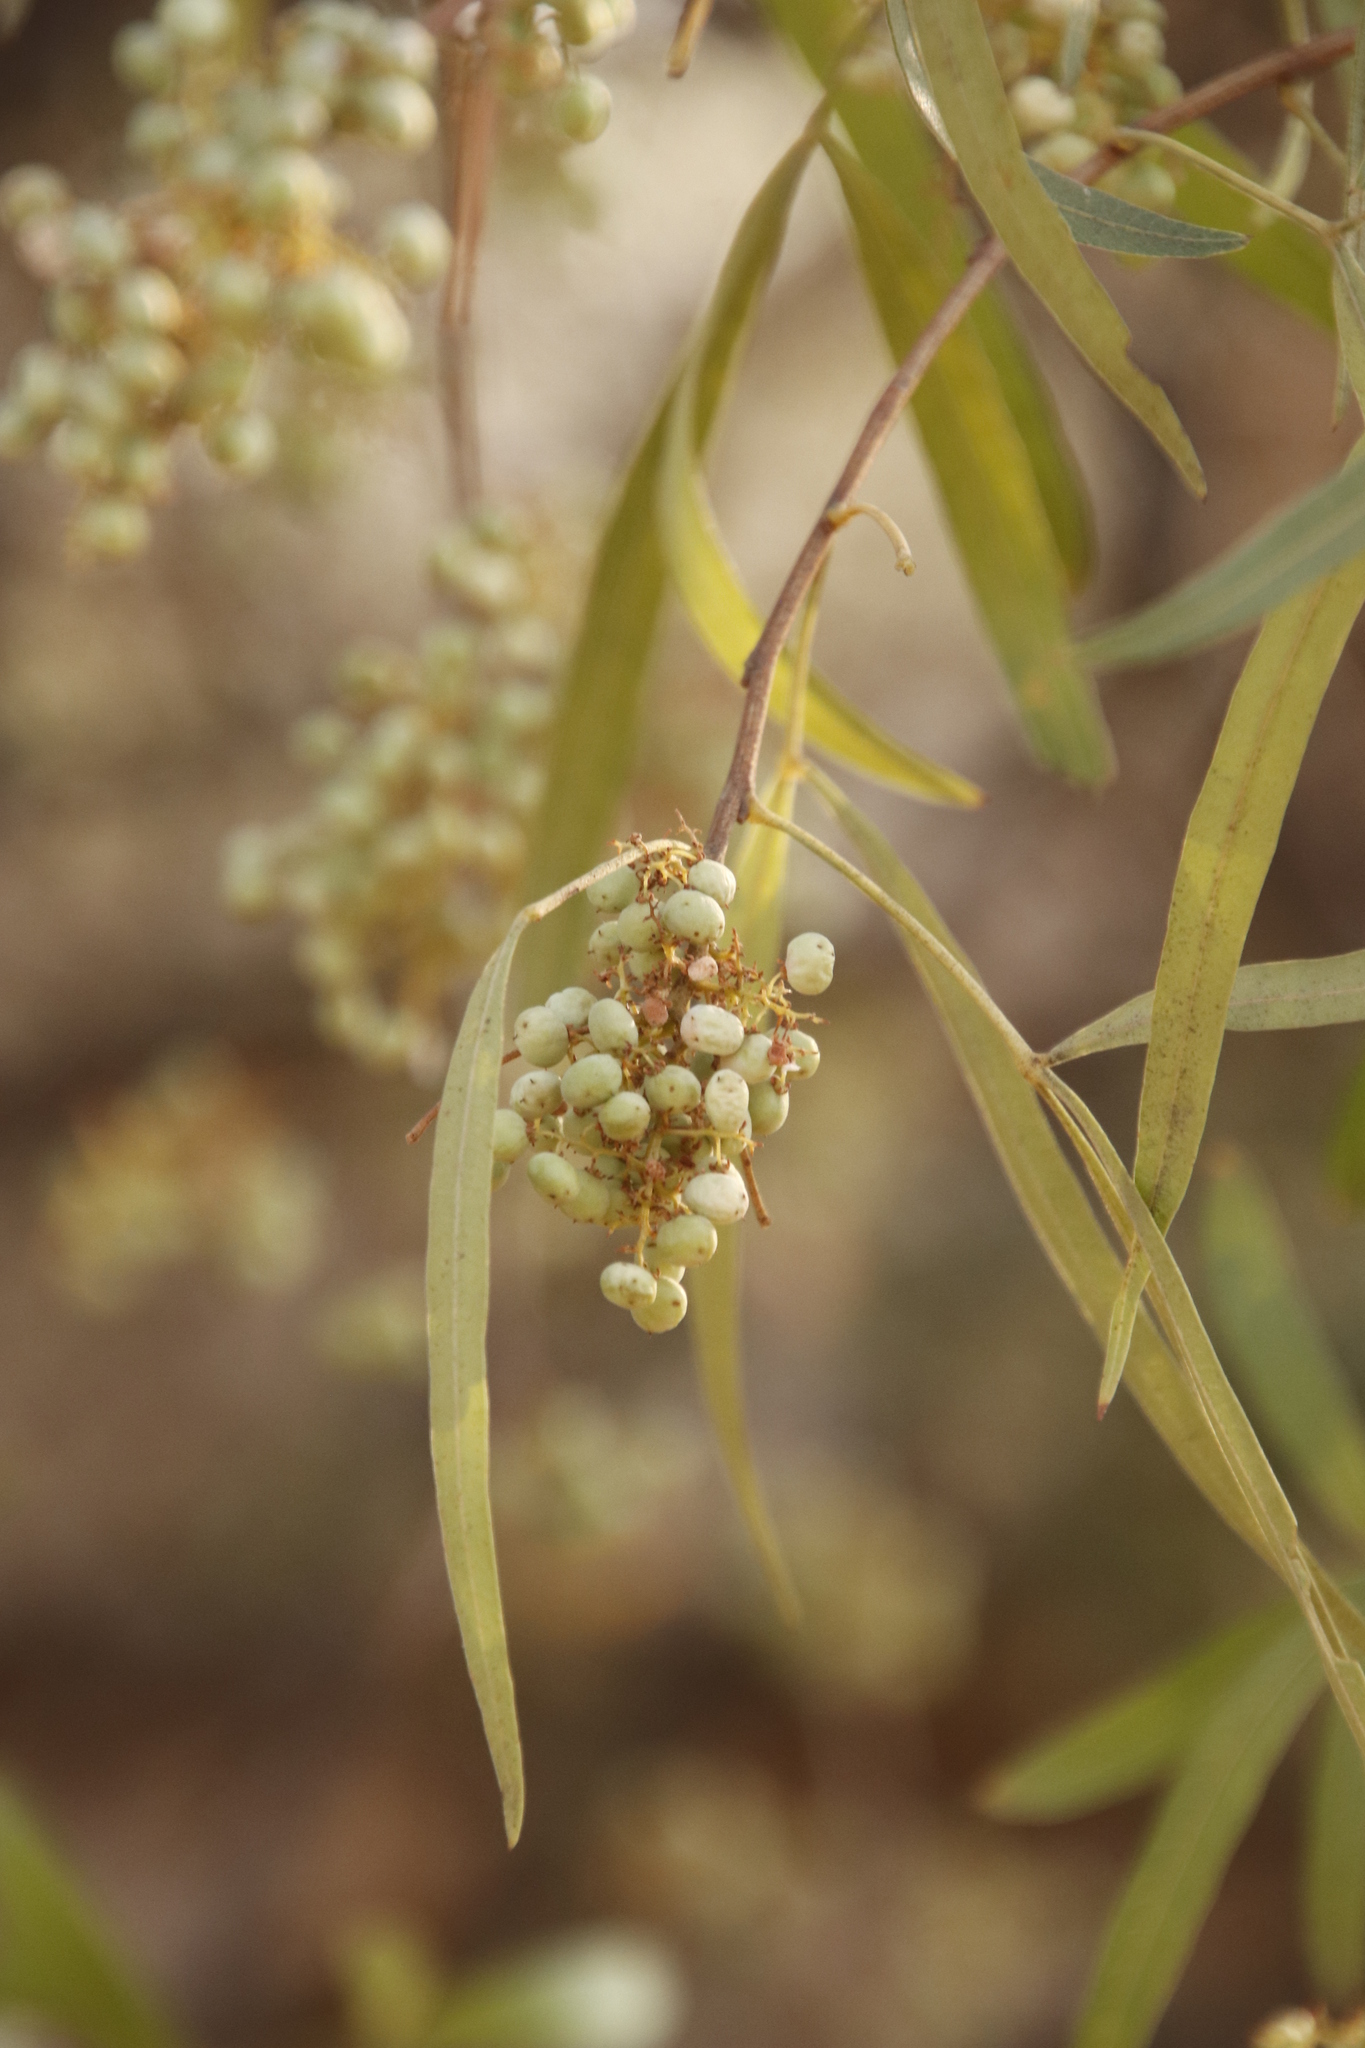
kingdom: Plantae
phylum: Tracheophyta
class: Magnoliopsida
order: Sapindales
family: Anacardiaceae
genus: Searsia
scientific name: Searsia lancea
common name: Cashew
